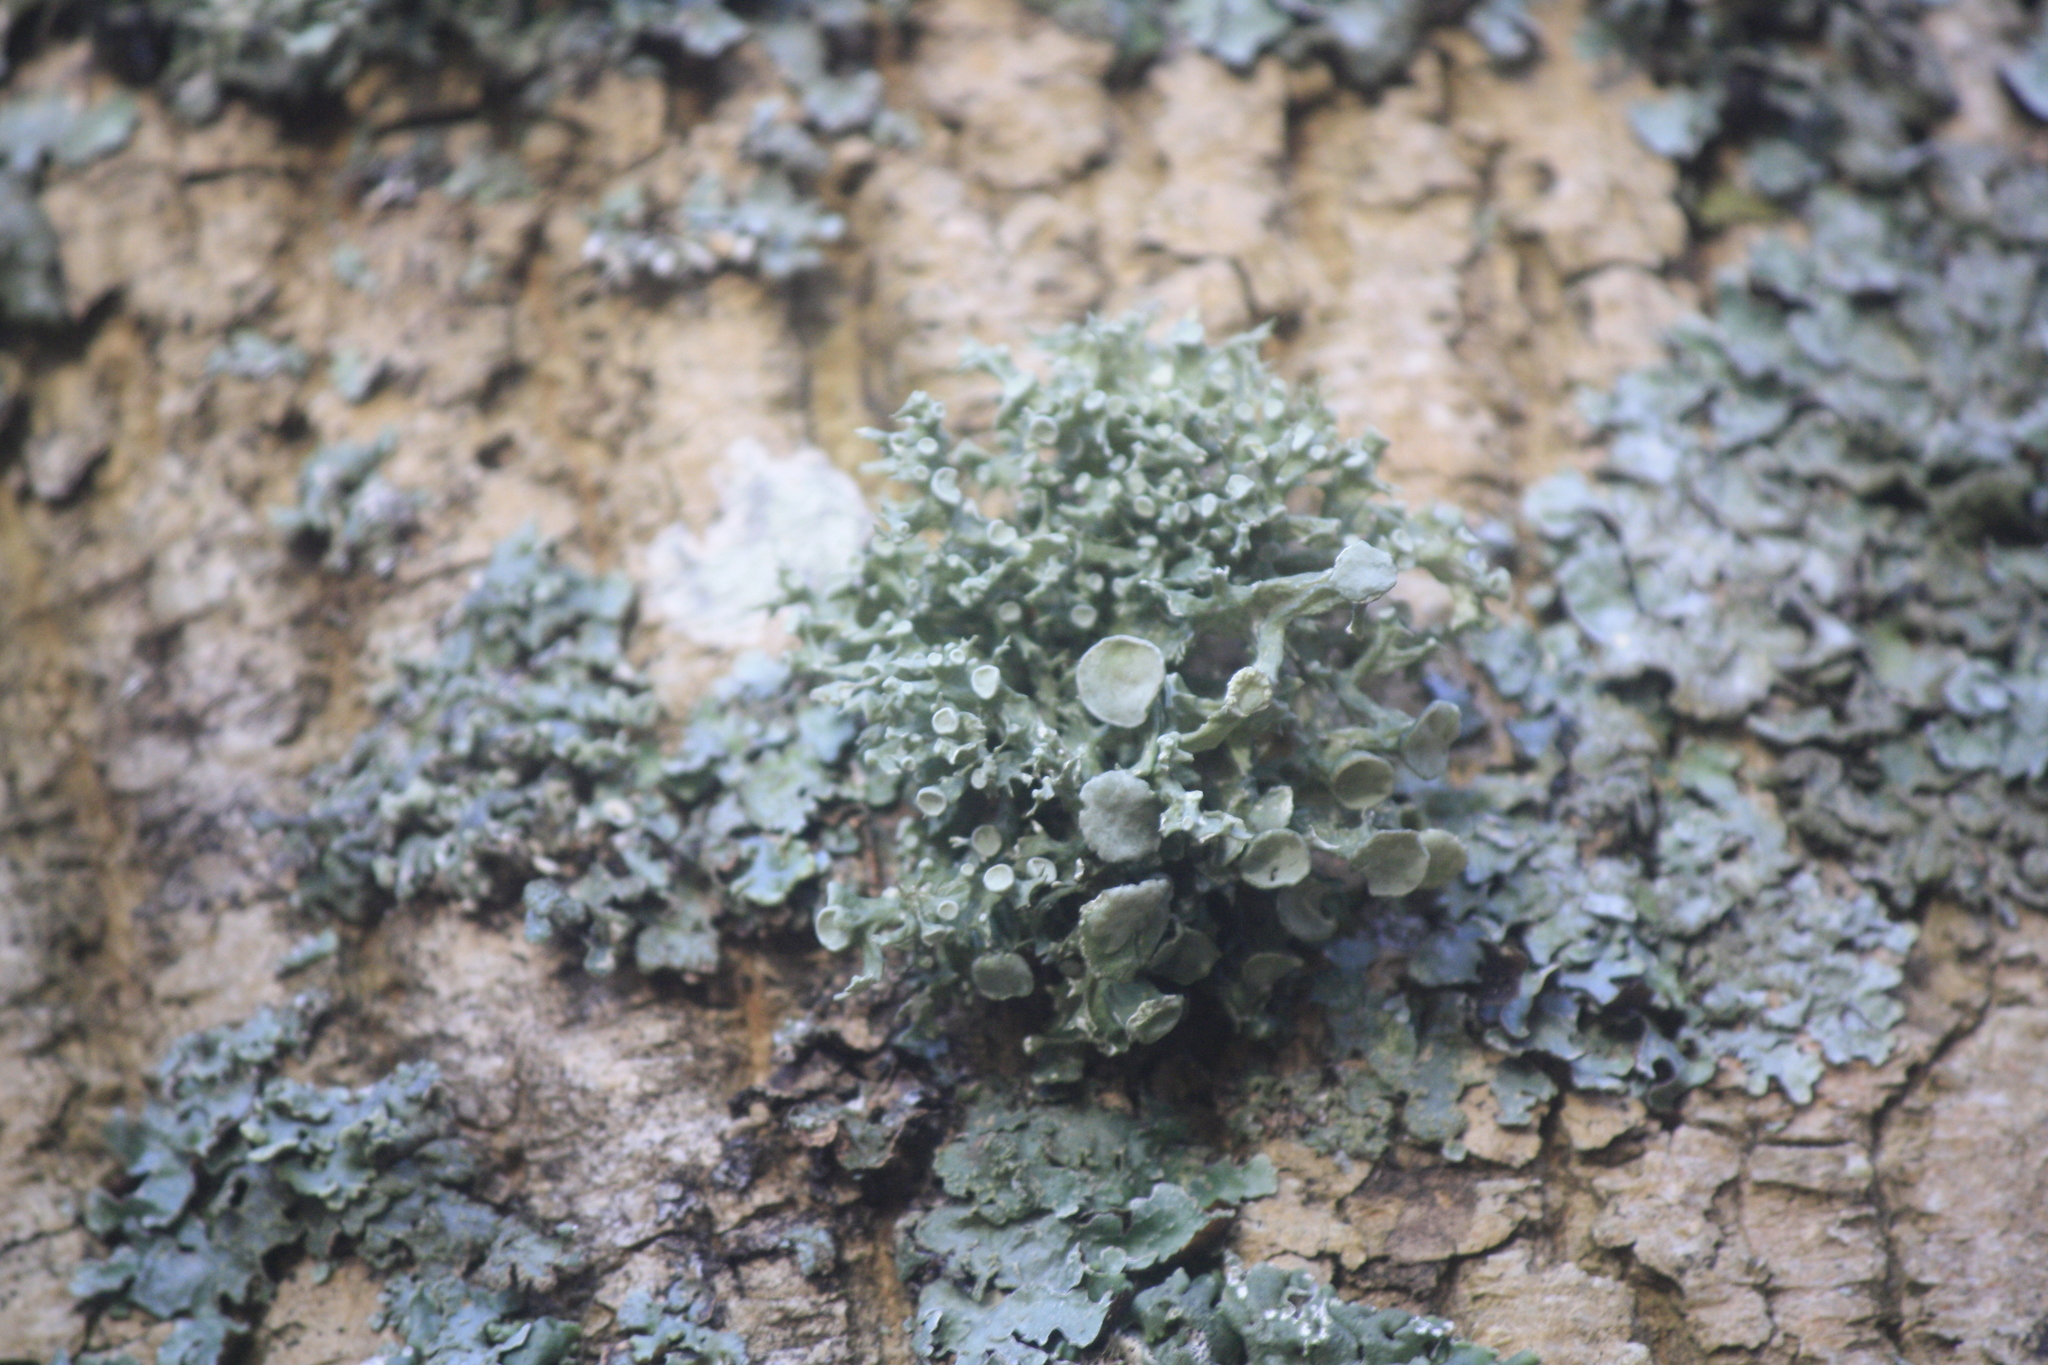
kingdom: Fungi
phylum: Ascomycota
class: Lecanoromycetes
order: Lecanorales
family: Ramalinaceae
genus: Ramalina
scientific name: Ramalina fastigiata
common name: Dotted ribbon lichen
